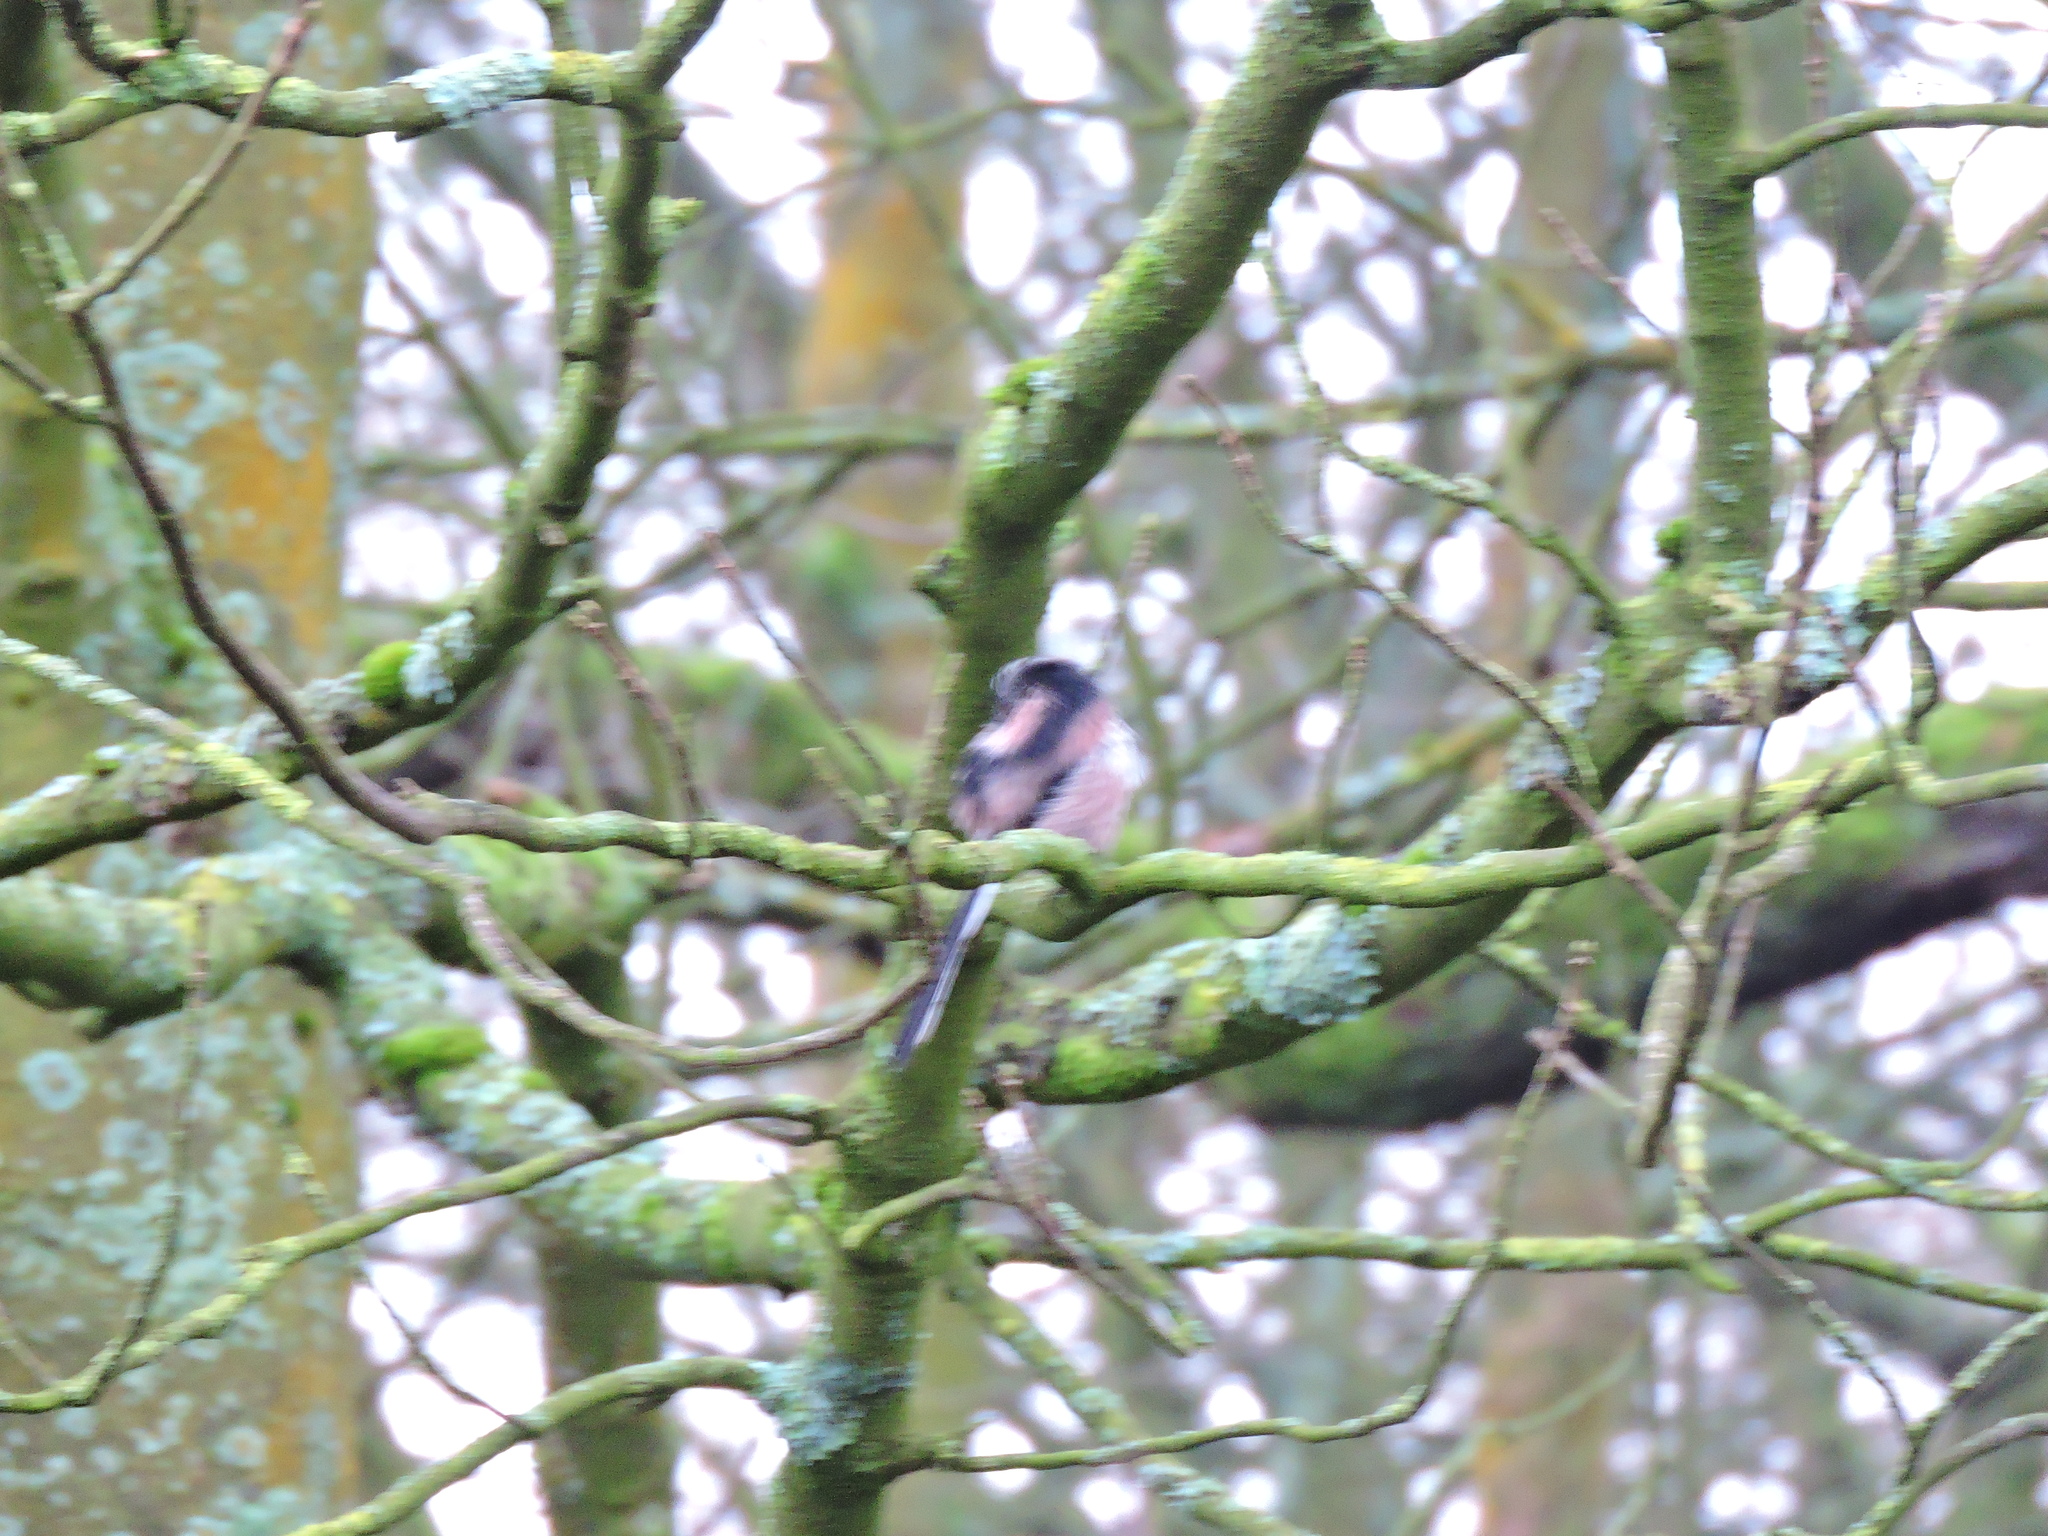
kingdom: Animalia
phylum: Chordata
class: Aves
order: Passeriformes
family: Aegithalidae
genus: Aegithalos
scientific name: Aegithalos caudatus
